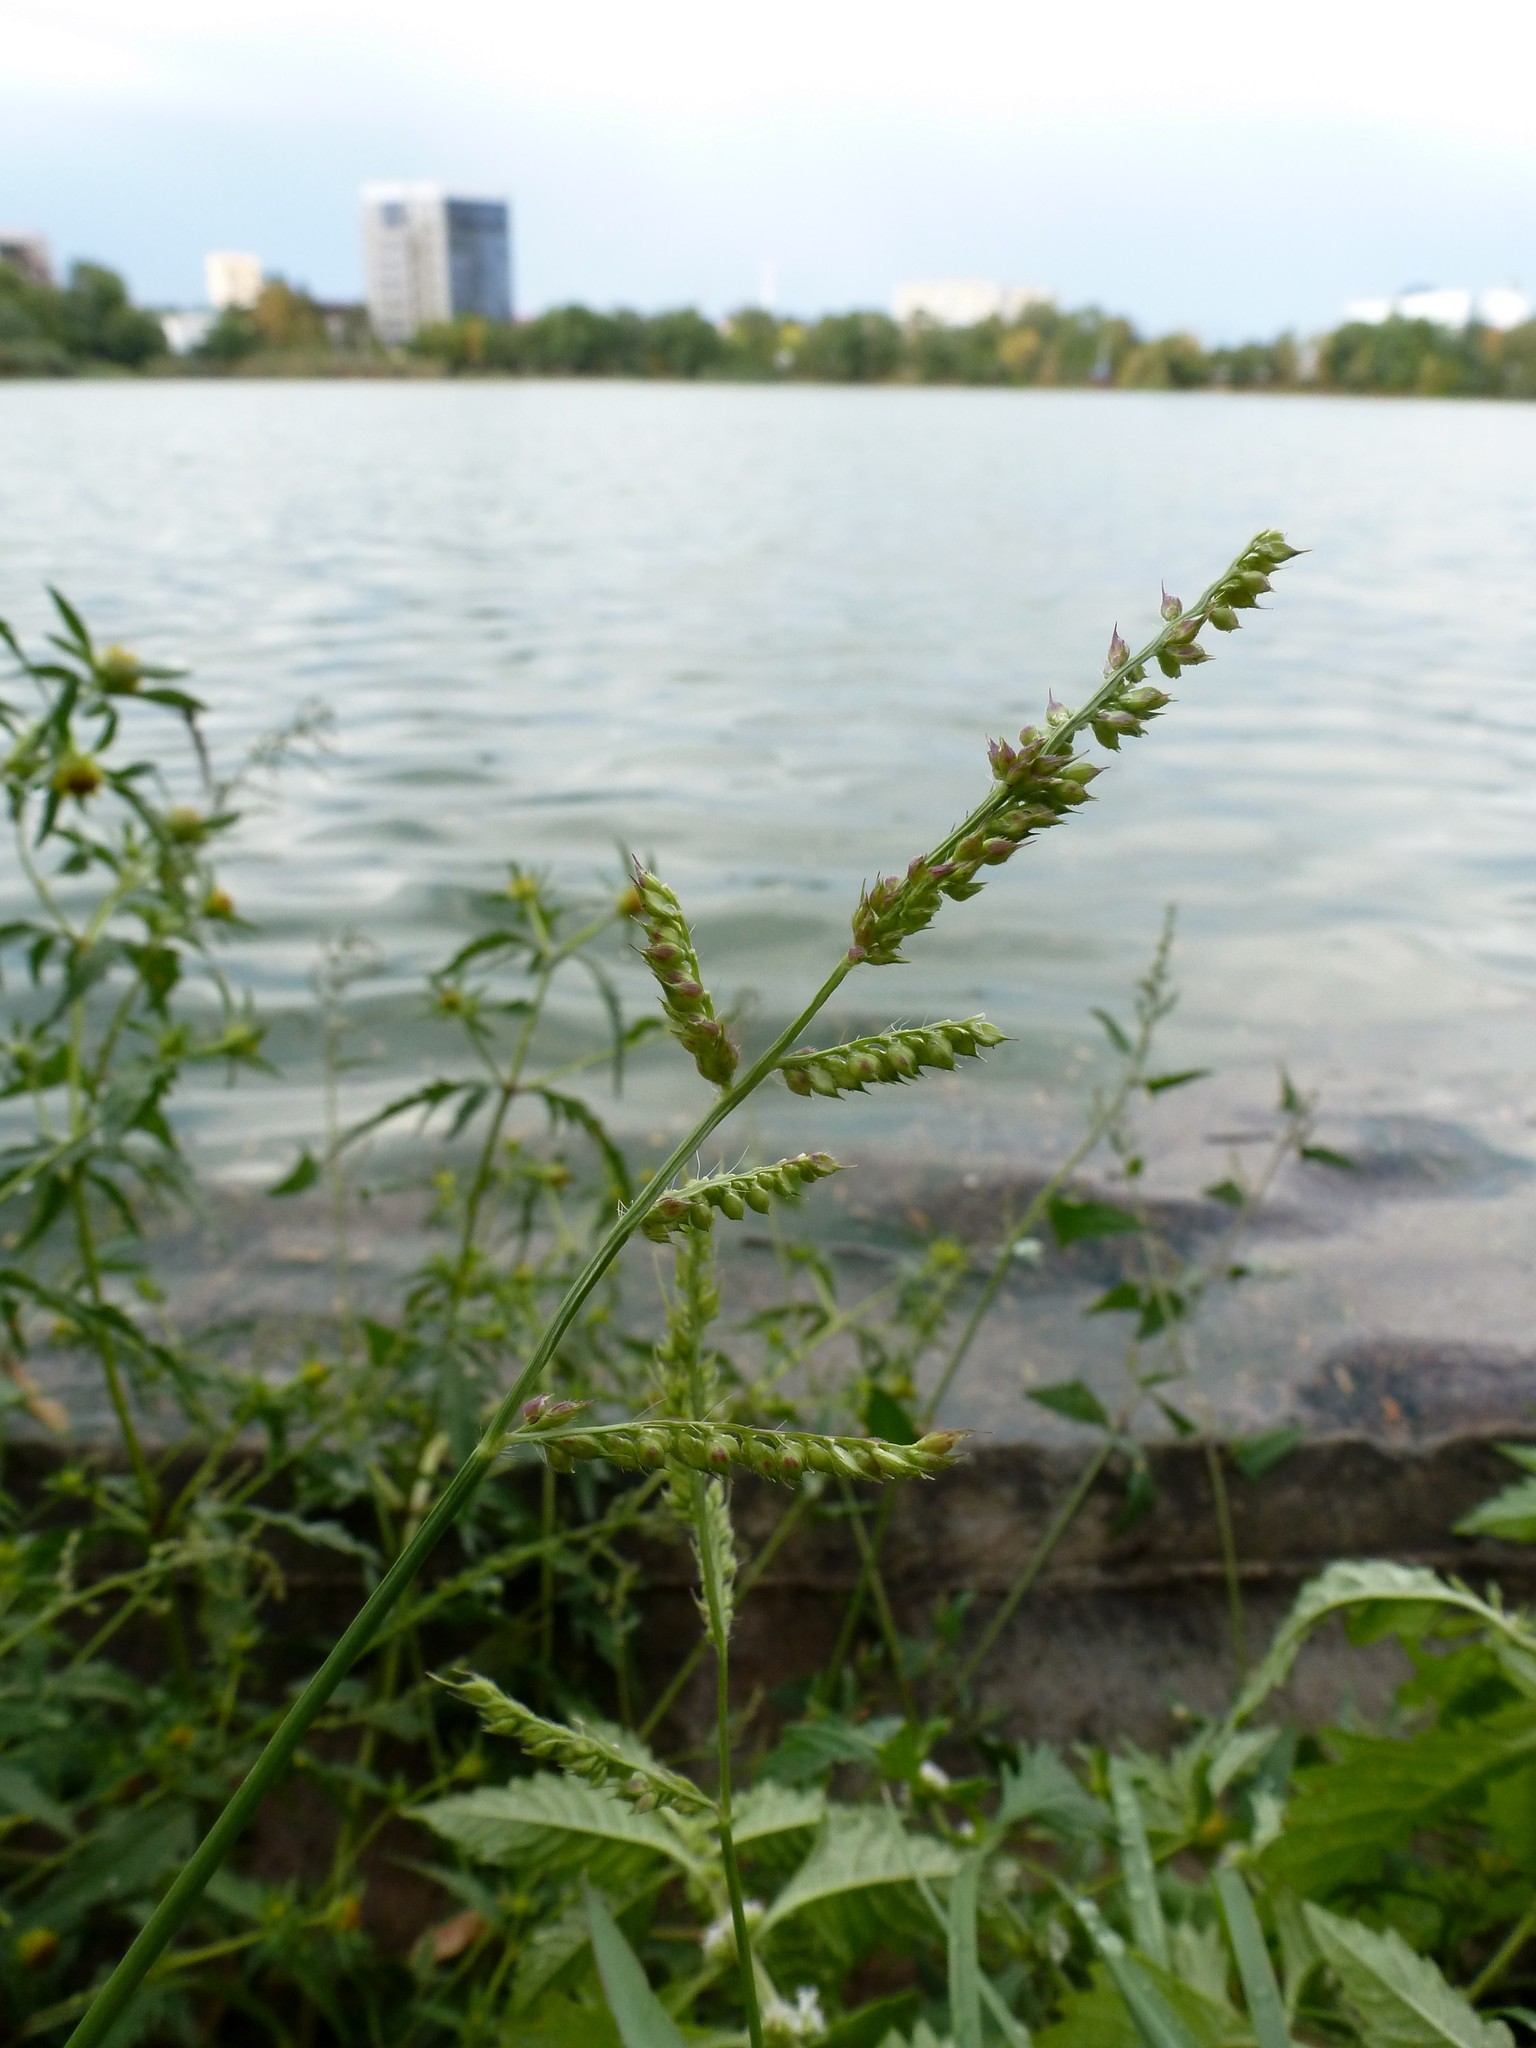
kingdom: Plantae
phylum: Tracheophyta
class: Liliopsida
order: Poales
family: Poaceae
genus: Echinochloa
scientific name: Echinochloa crus-galli
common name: Cockspur
